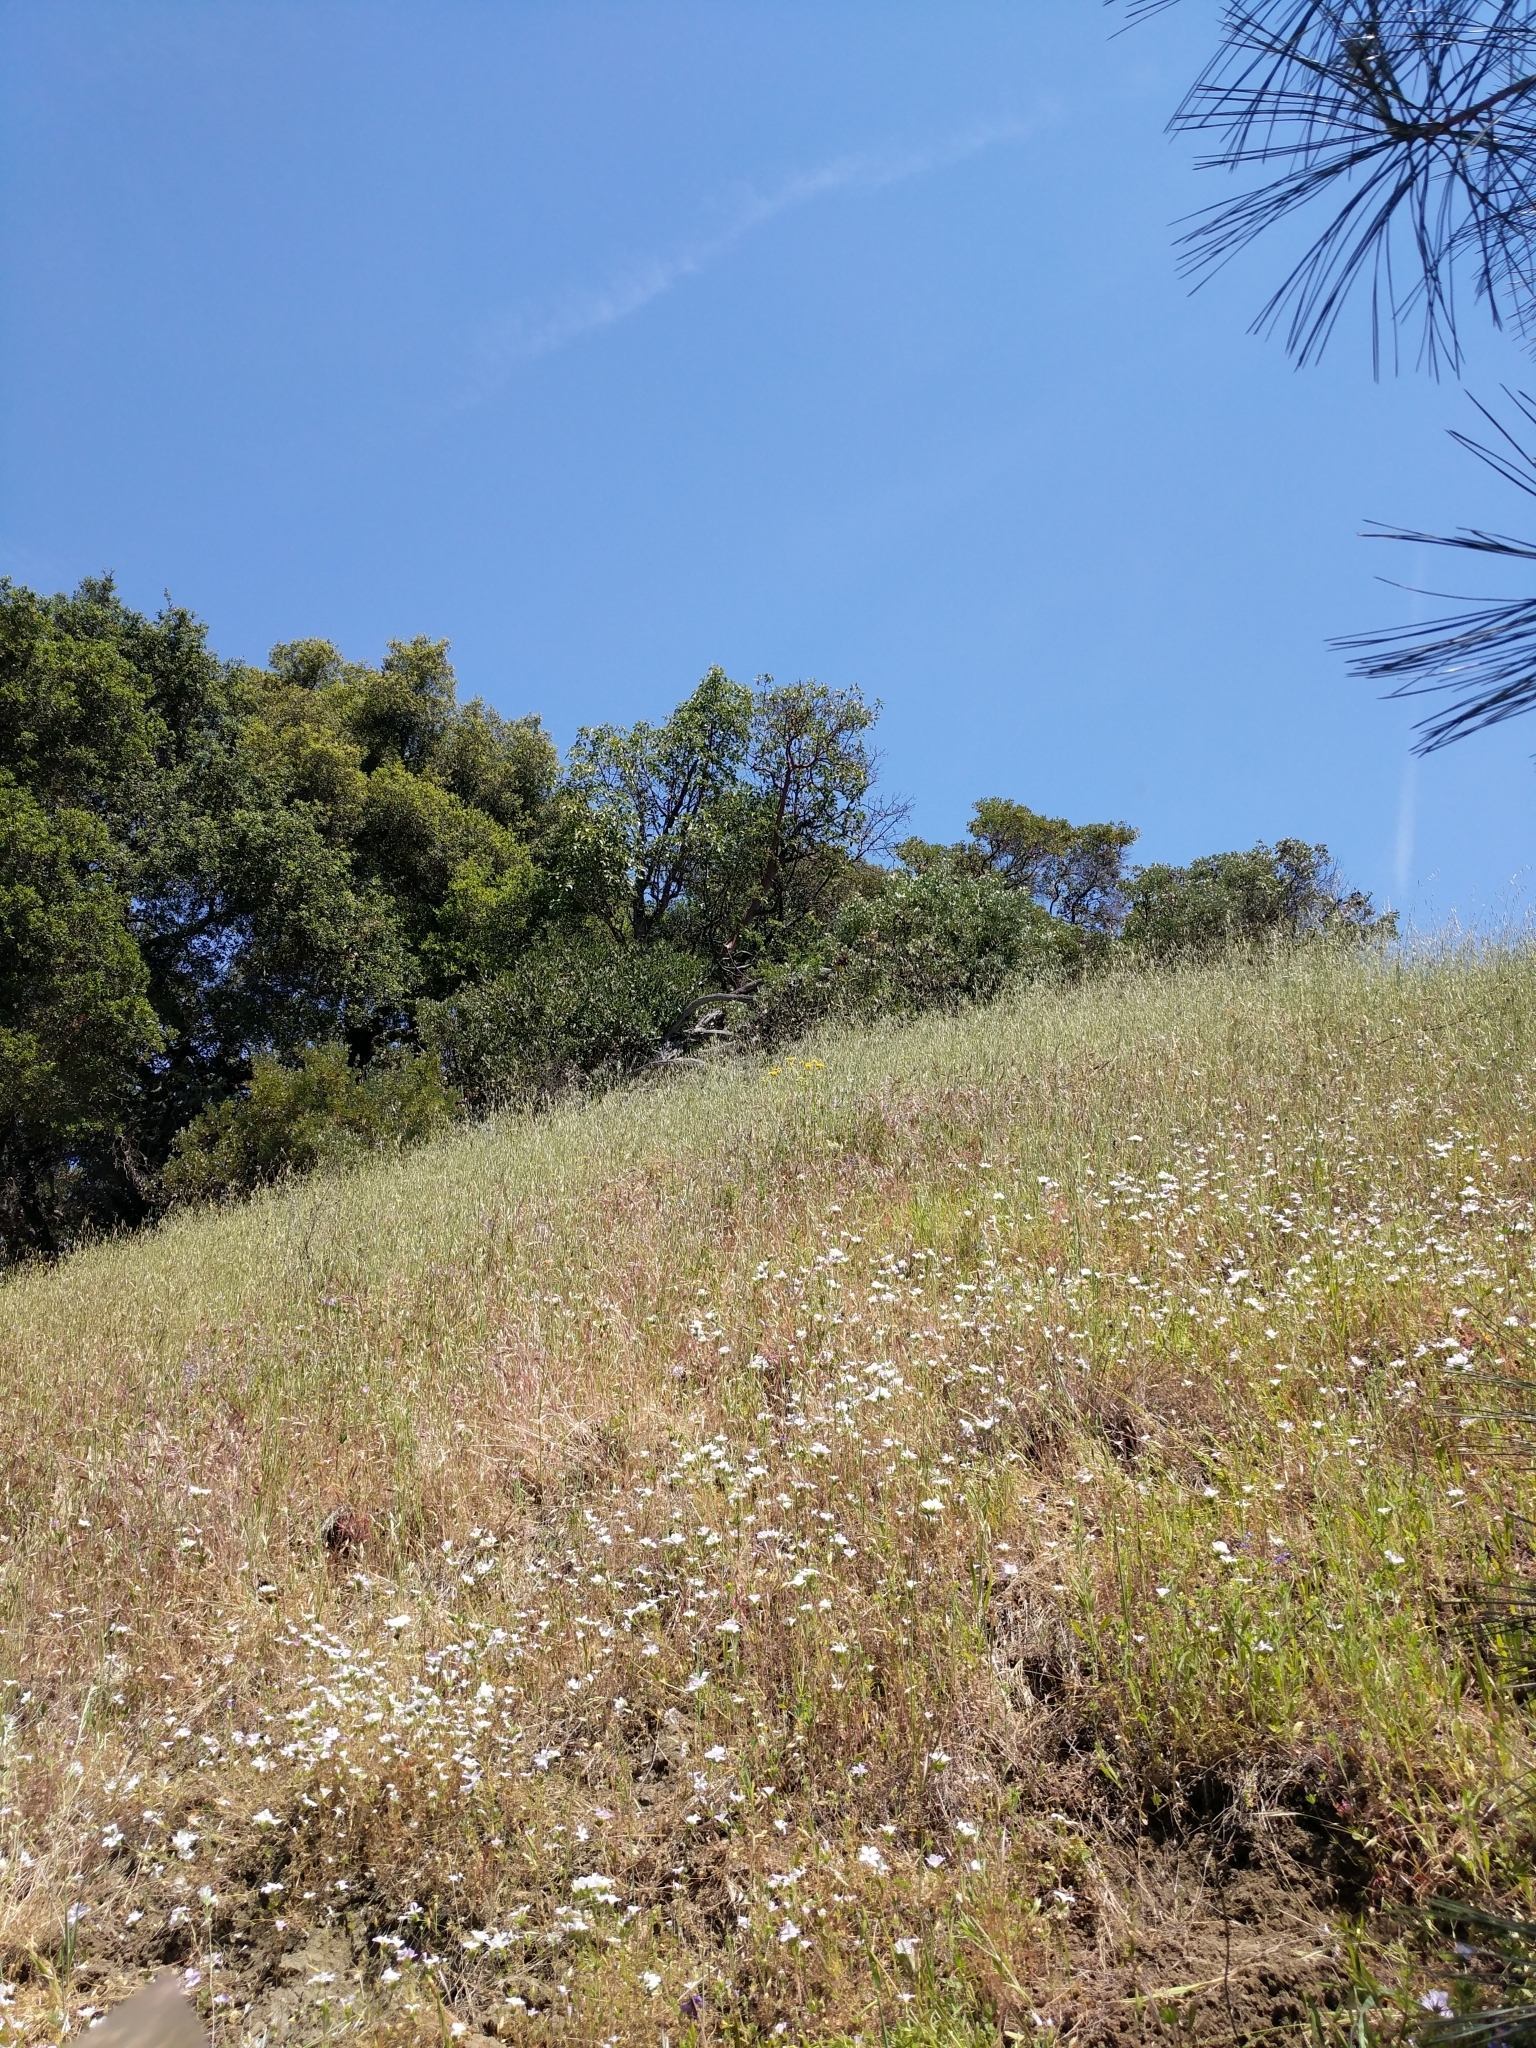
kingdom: Plantae
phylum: Tracheophyta
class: Magnoliopsida
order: Ericales
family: Polemoniaceae
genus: Leptosiphon
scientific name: Leptosiphon grandiflorus
